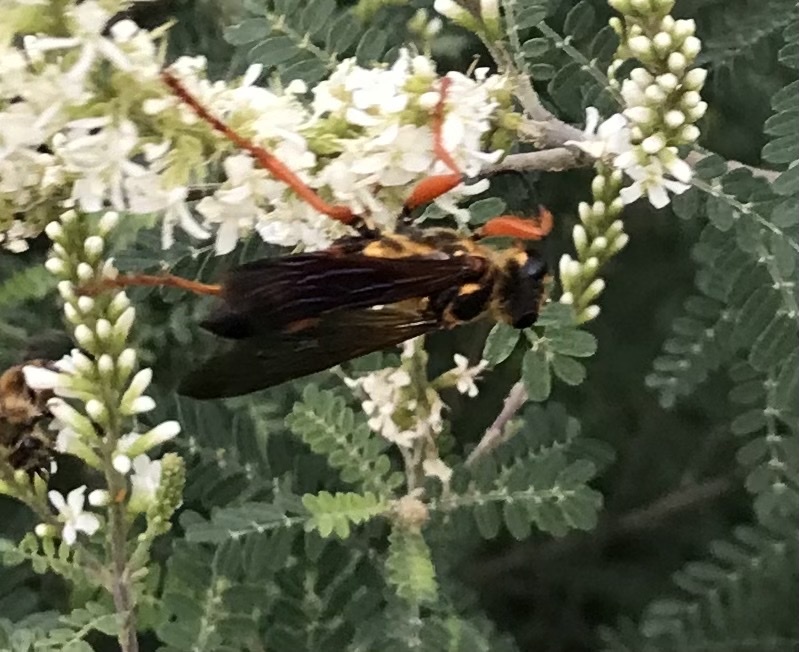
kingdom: Animalia
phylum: Arthropoda
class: Insecta
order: Hymenoptera
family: Sphecidae
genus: Sphex
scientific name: Sphex ichneumoneus
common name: Great golden digger wasp
